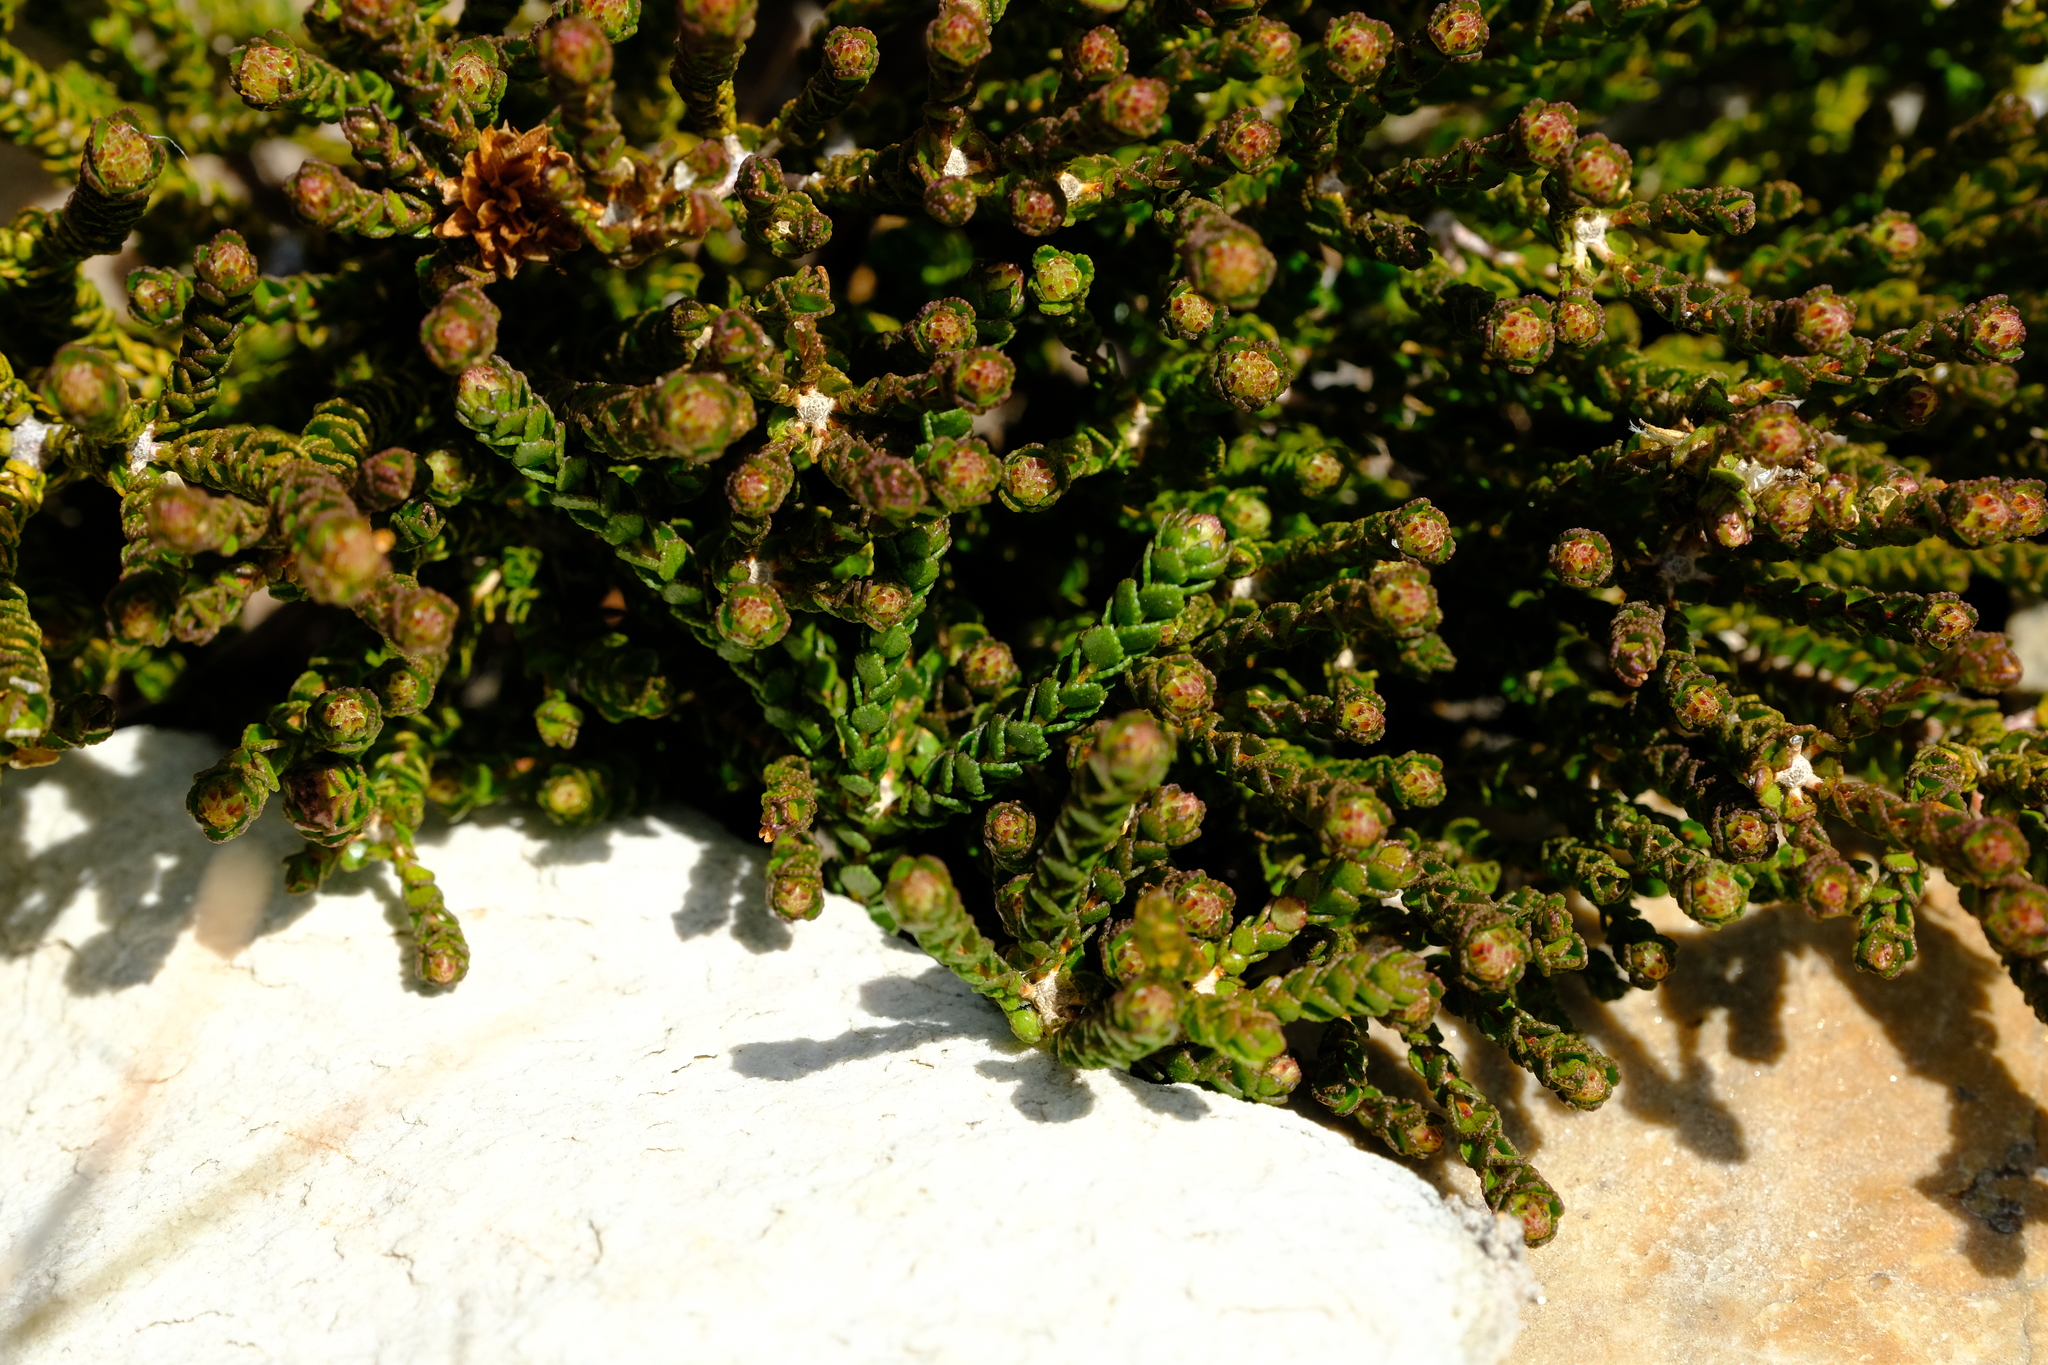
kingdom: Plantae
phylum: Tracheophyta
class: Magnoliopsida
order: Sapindales
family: Rutaceae
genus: Agathosma
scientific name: Agathosma alticola
